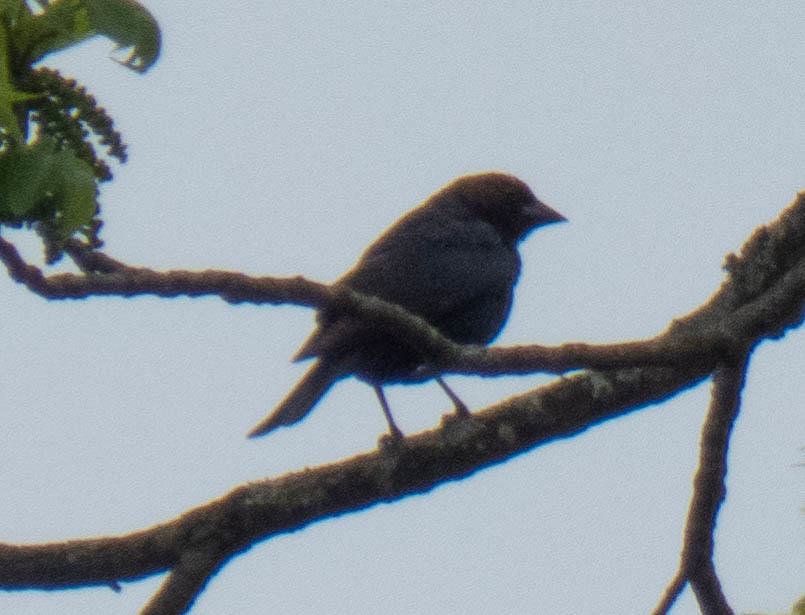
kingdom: Animalia
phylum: Chordata
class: Aves
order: Passeriformes
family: Icteridae
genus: Molothrus
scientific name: Molothrus ater
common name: Brown-headed cowbird
